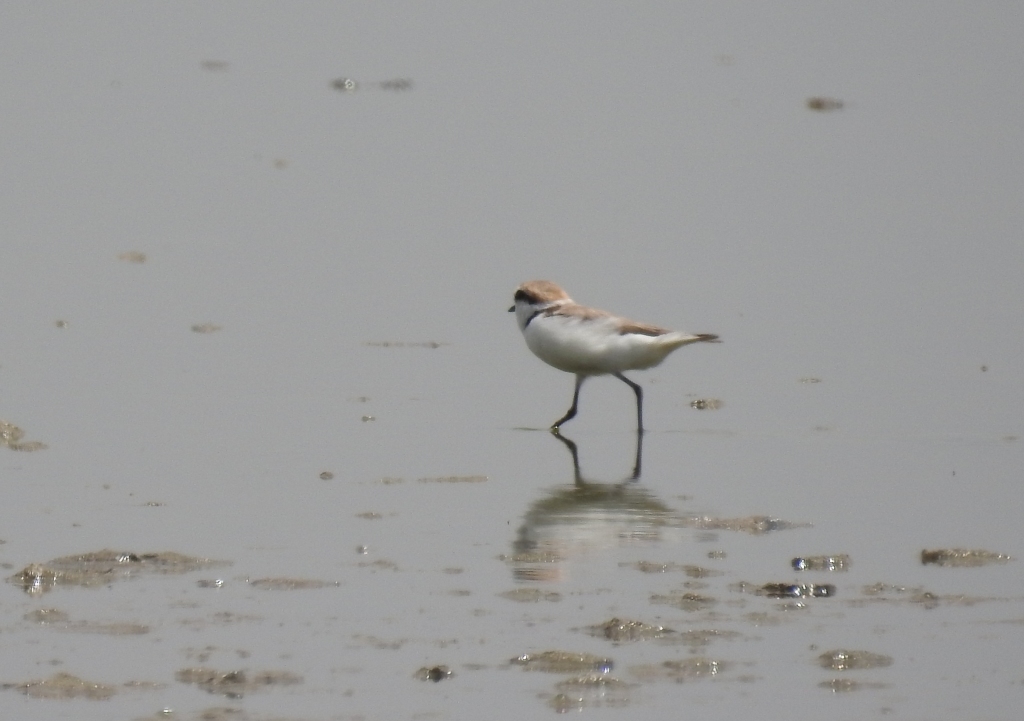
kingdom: Animalia
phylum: Chordata
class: Aves
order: Charadriiformes
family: Charadriidae
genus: Charadrius
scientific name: Charadrius alexandrinus
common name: Kentish plover
